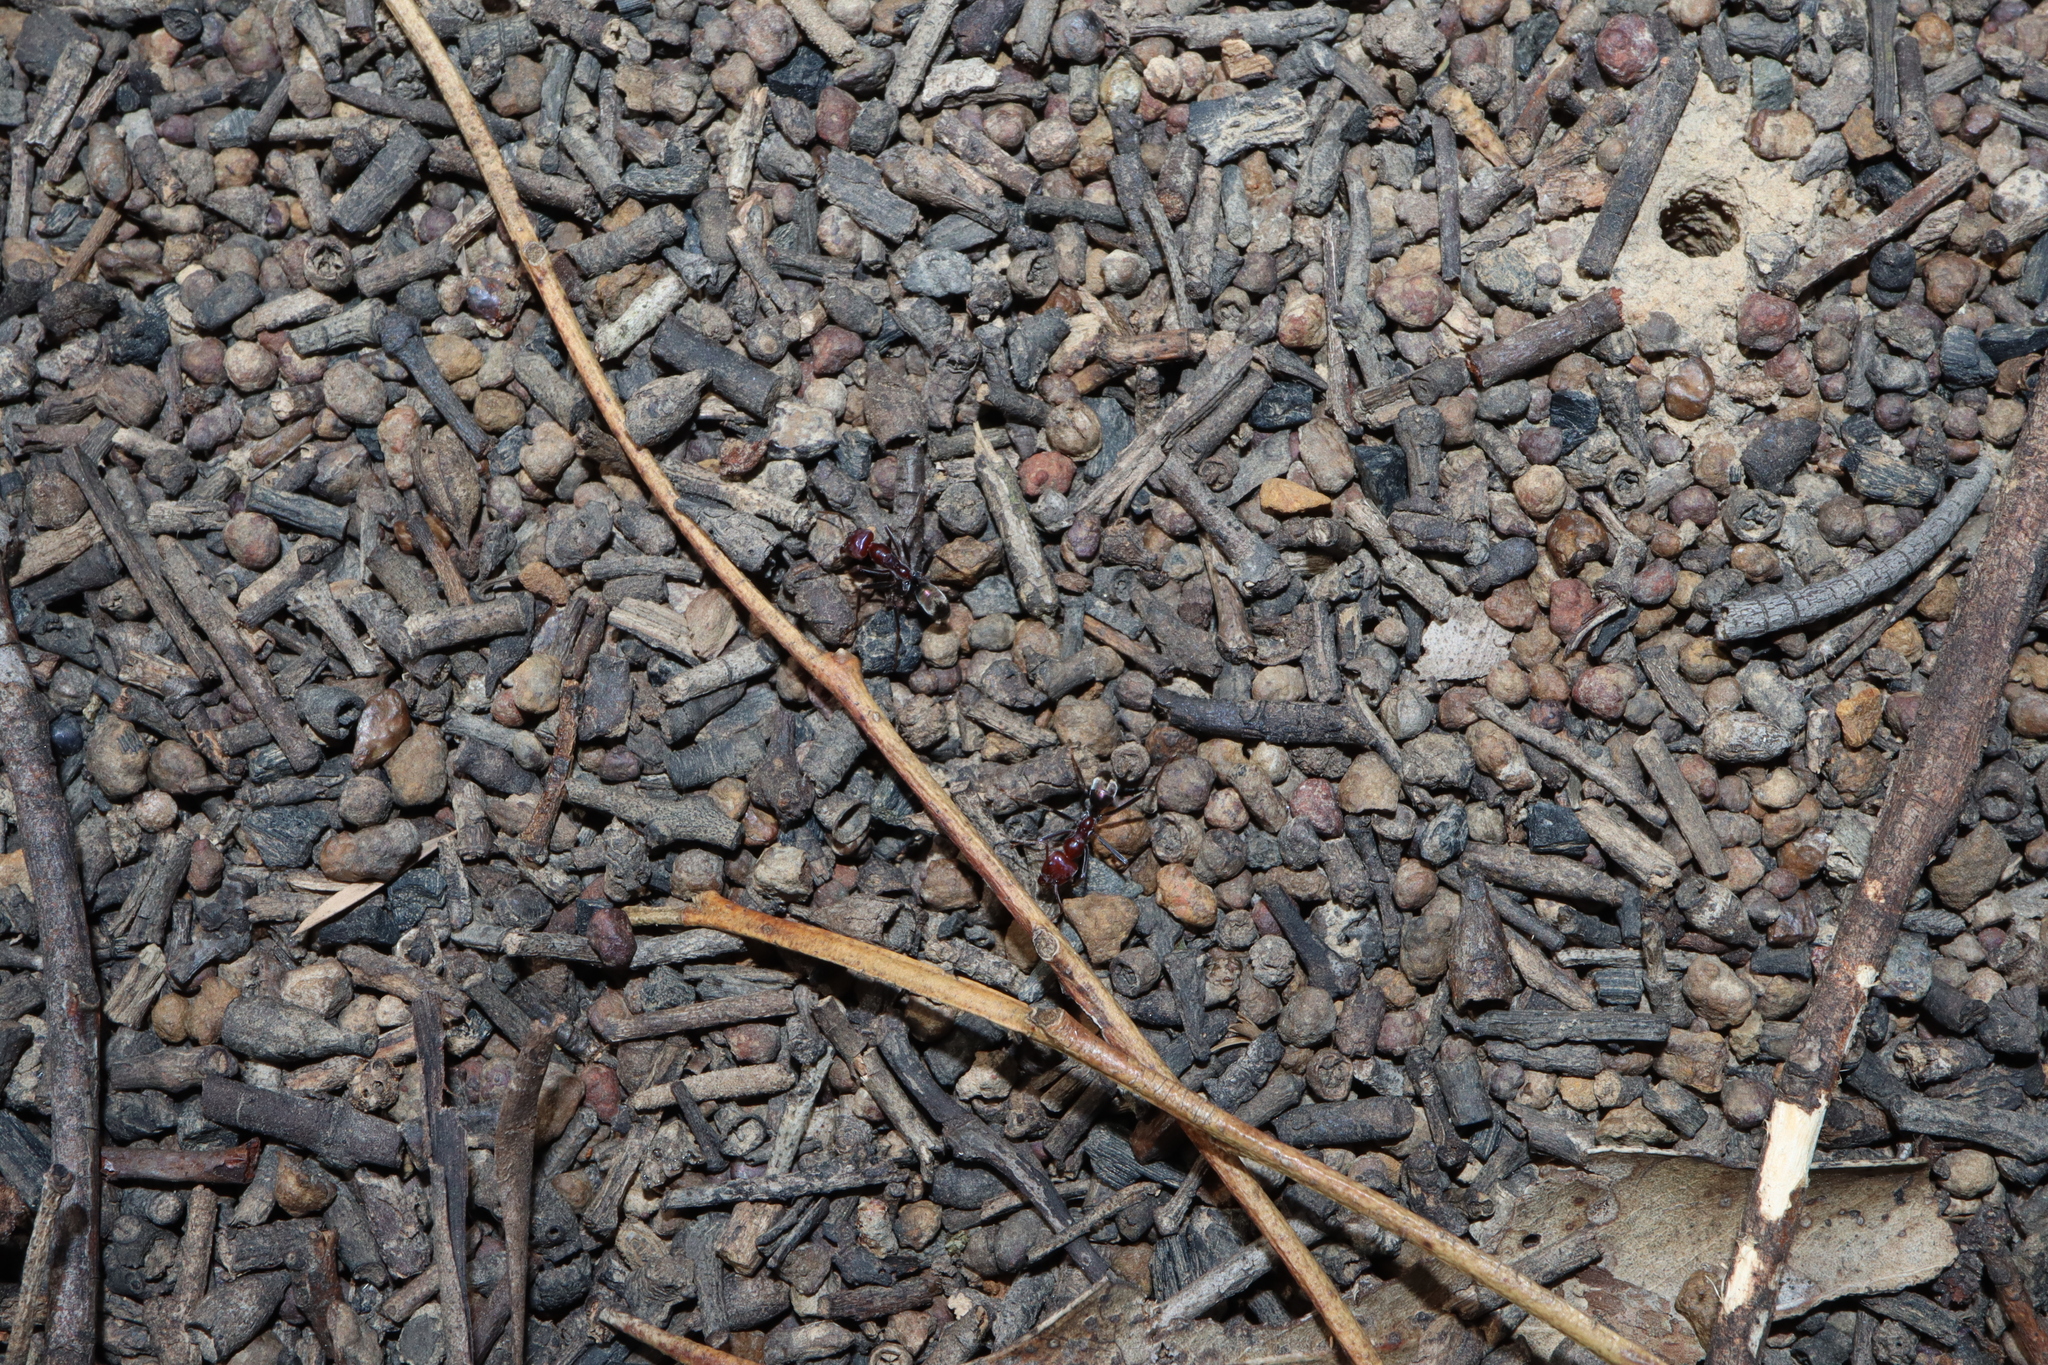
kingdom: Animalia
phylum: Arthropoda
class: Insecta
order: Hymenoptera
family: Formicidae
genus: Iridomyrmex
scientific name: Iridomyrmex purpureus
